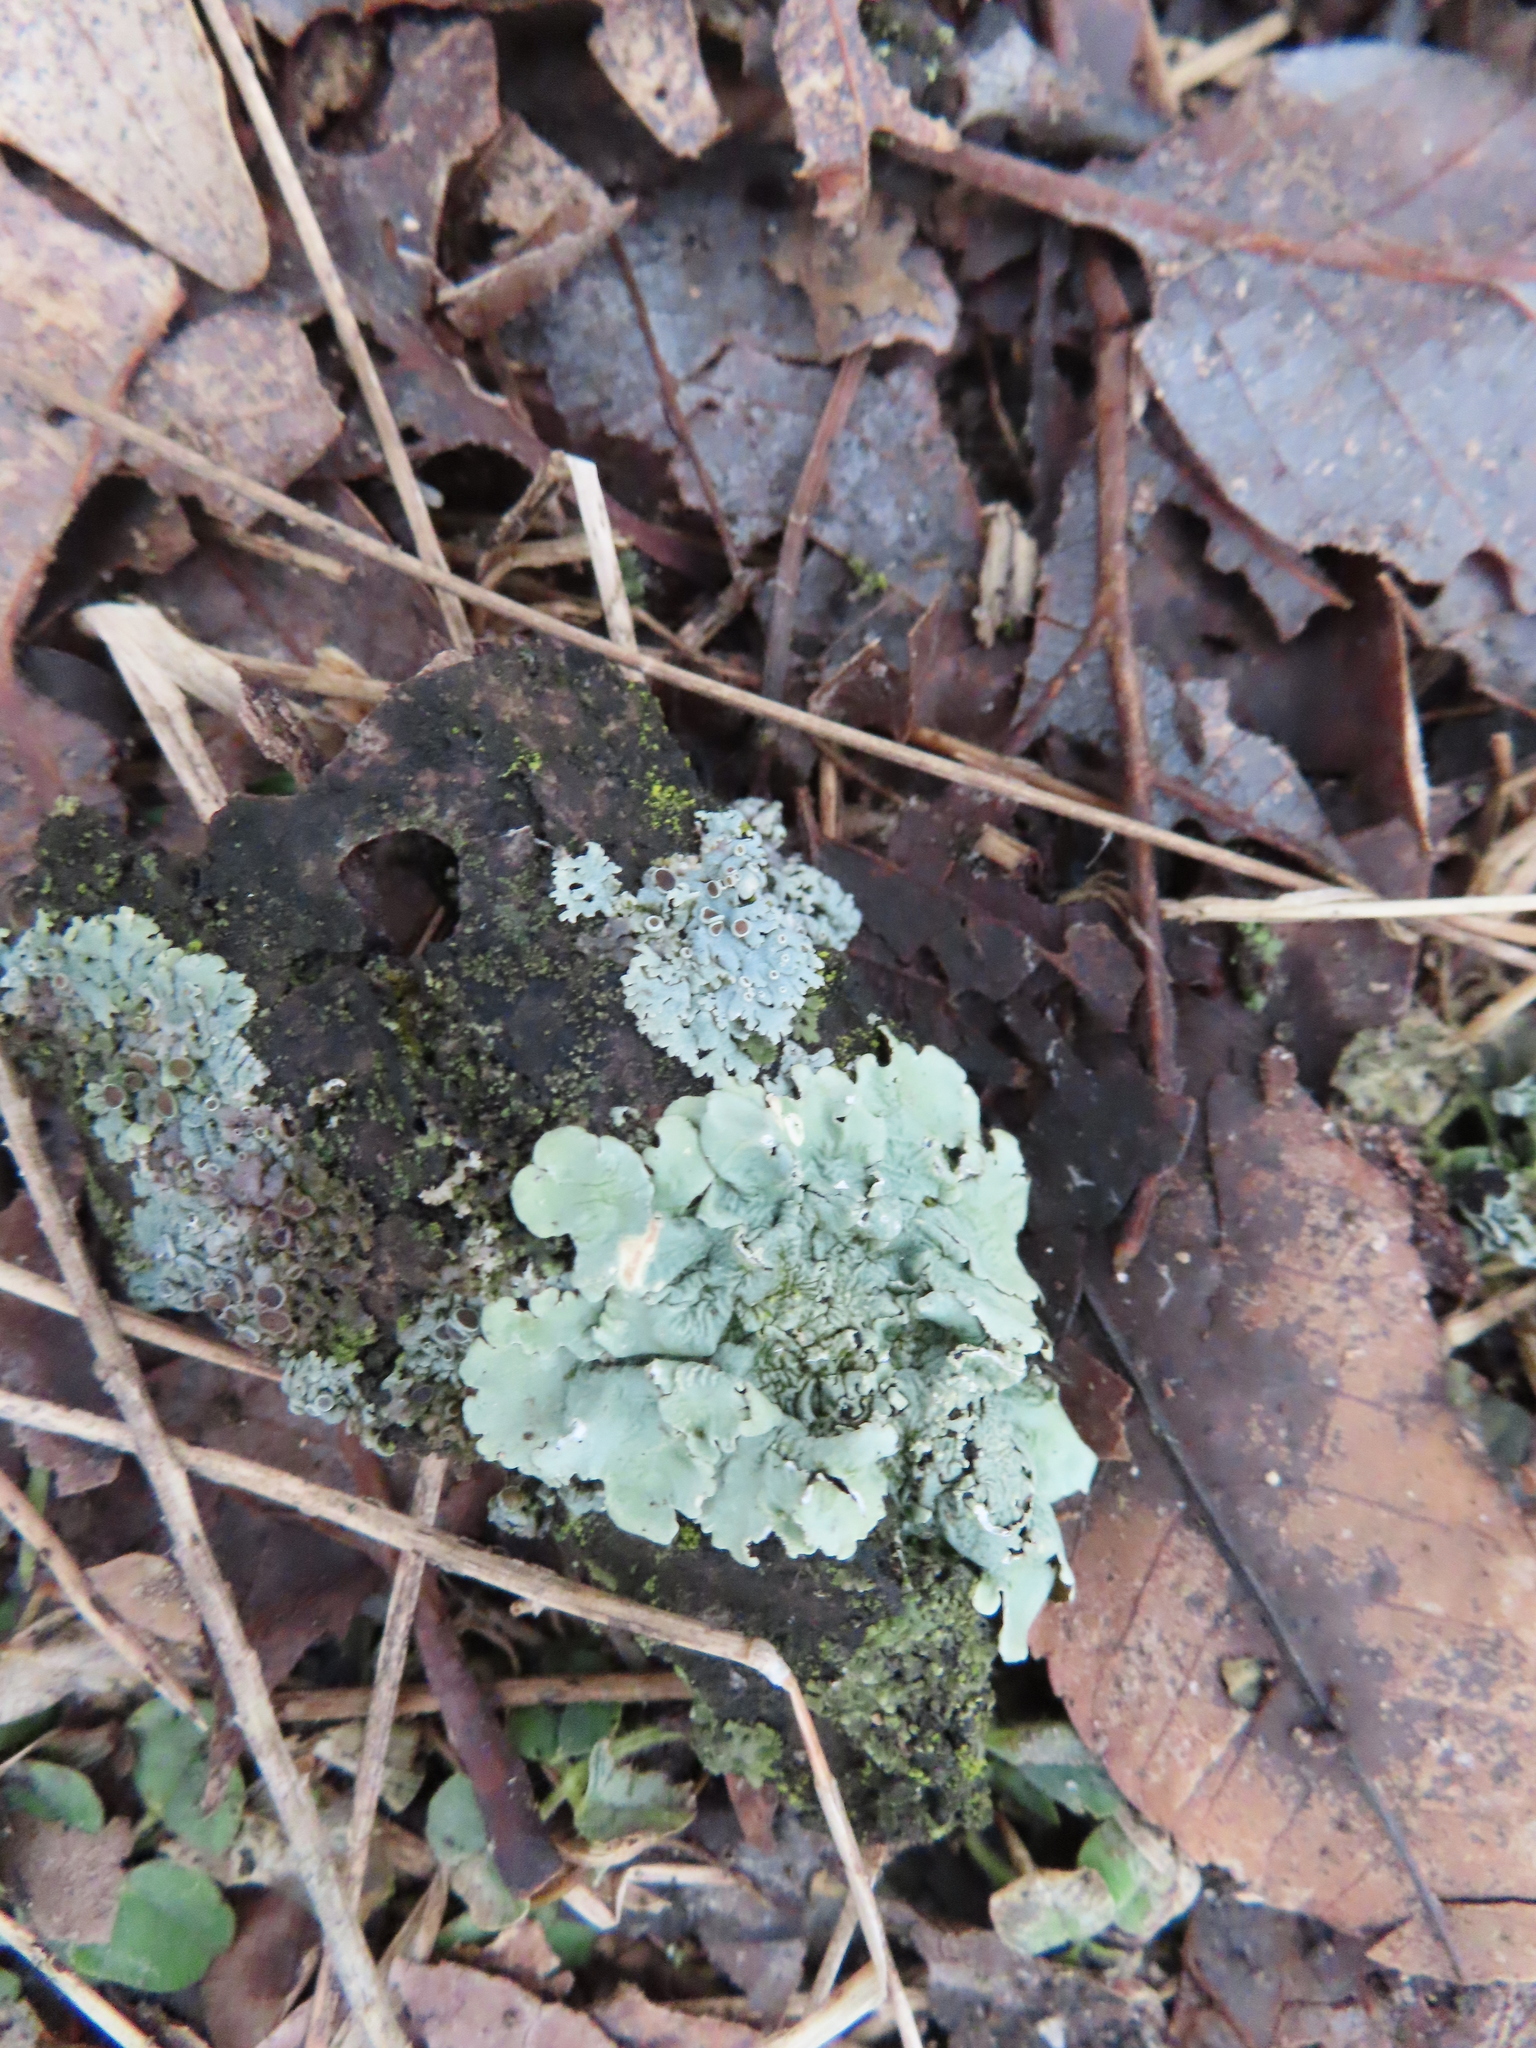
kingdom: Fungi
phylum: Ascomycota
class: Lecanoromycetes
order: Lecanorales
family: Parmeliaceae
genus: Flavoparmelia
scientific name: Flavoparmelia caperata
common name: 40-mile per hour lichen
